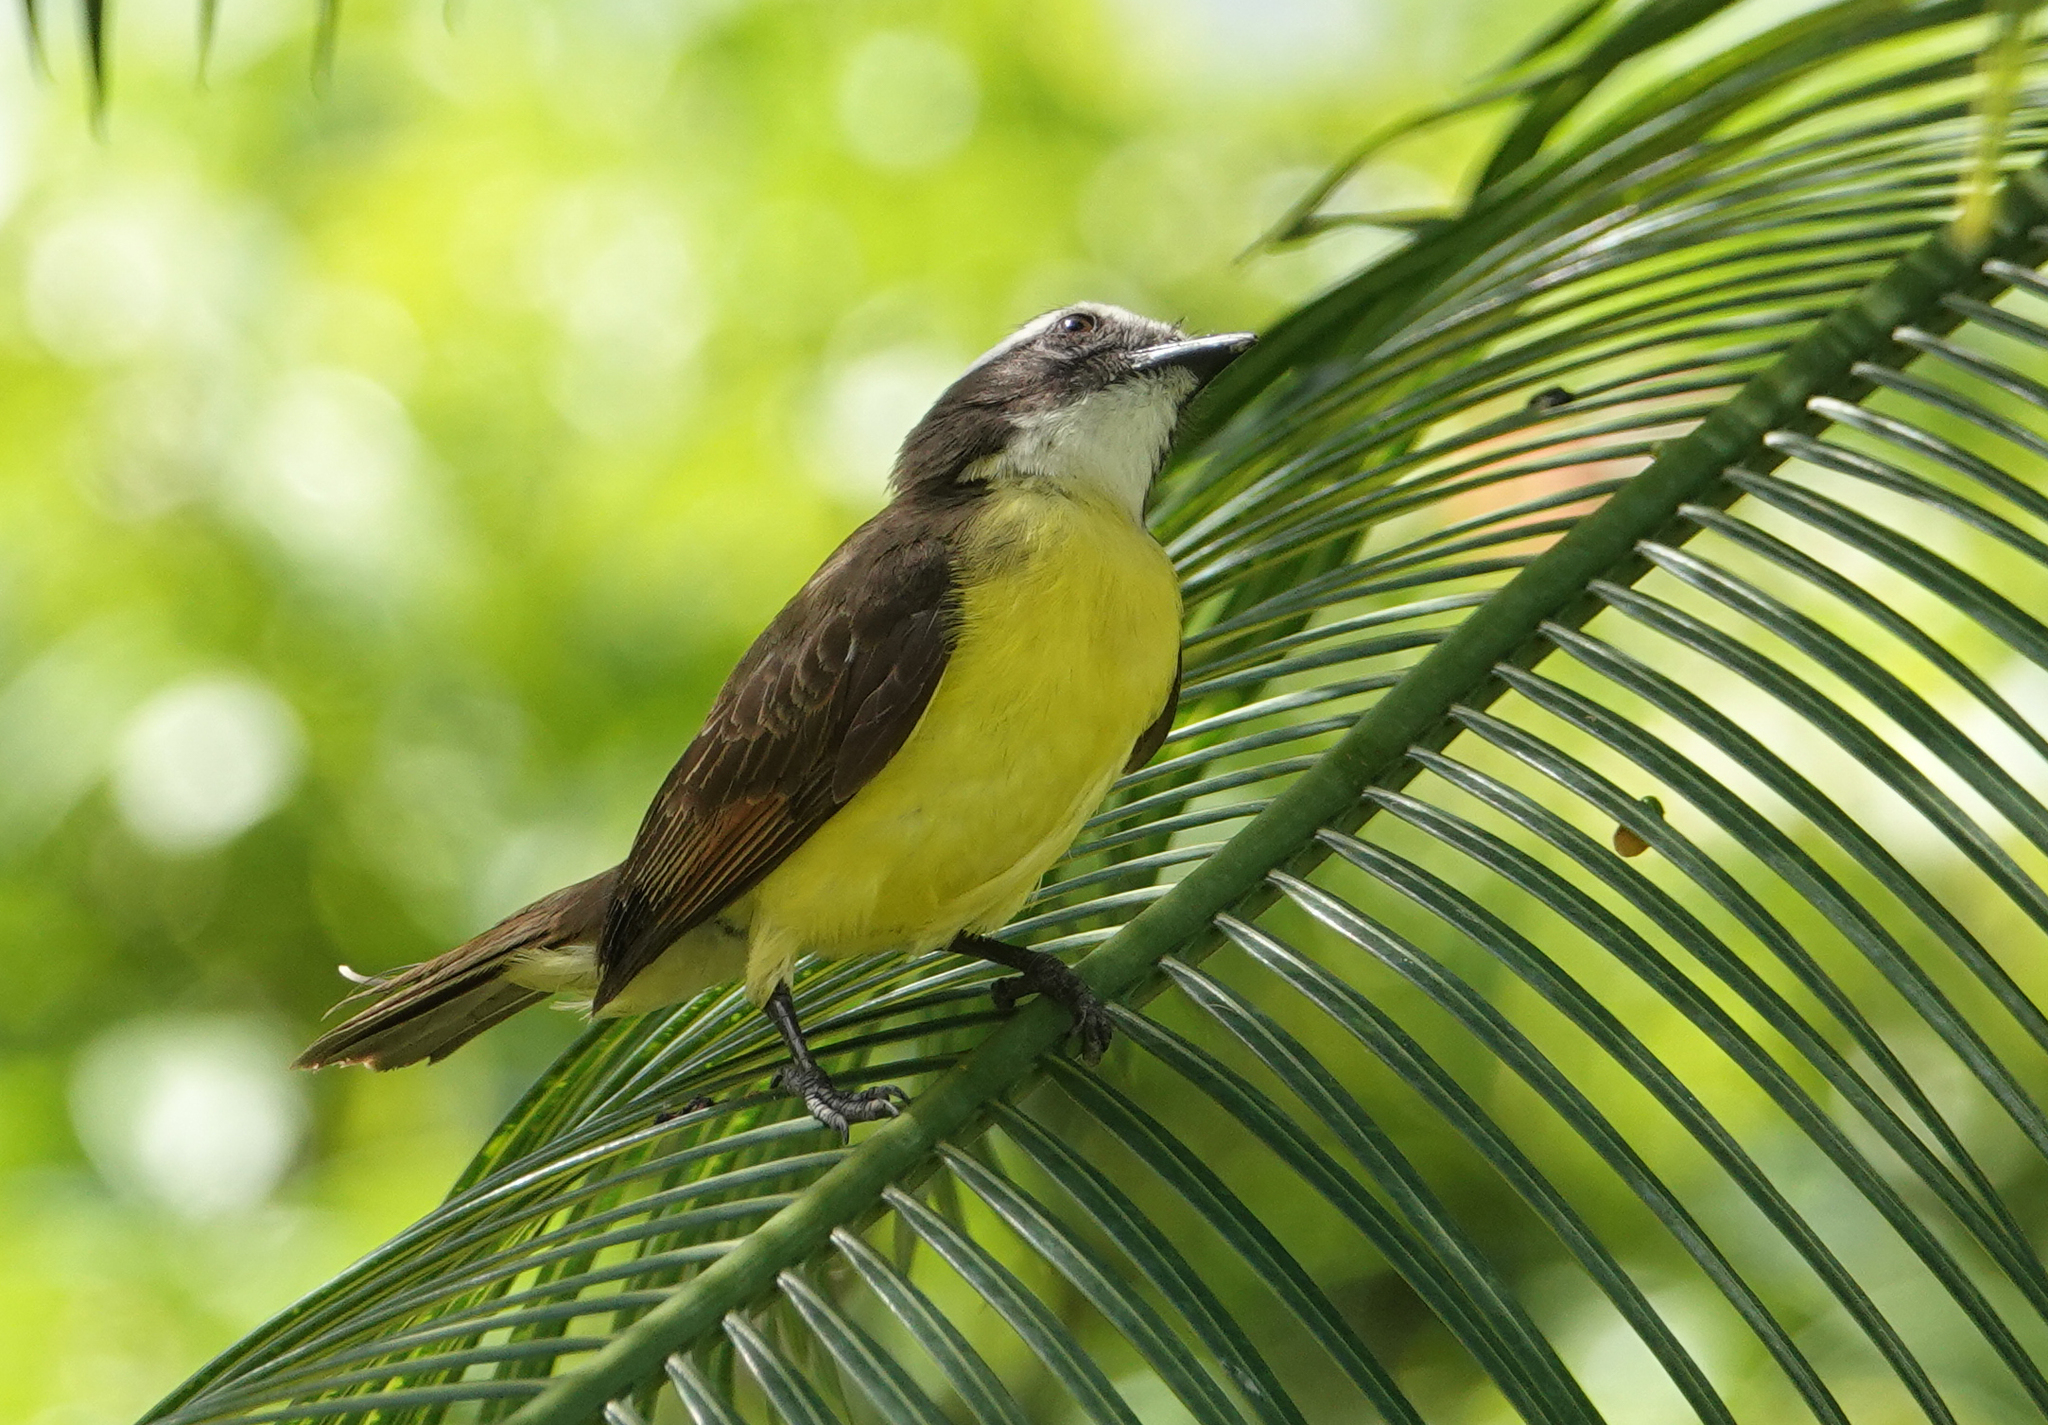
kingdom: Animalia
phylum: Chordata
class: Aves
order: Passeriformes
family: Tyrannidae
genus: Myiozetetes
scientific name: Myiozetetes cayanensis
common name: Rusty-margined flycatcher
